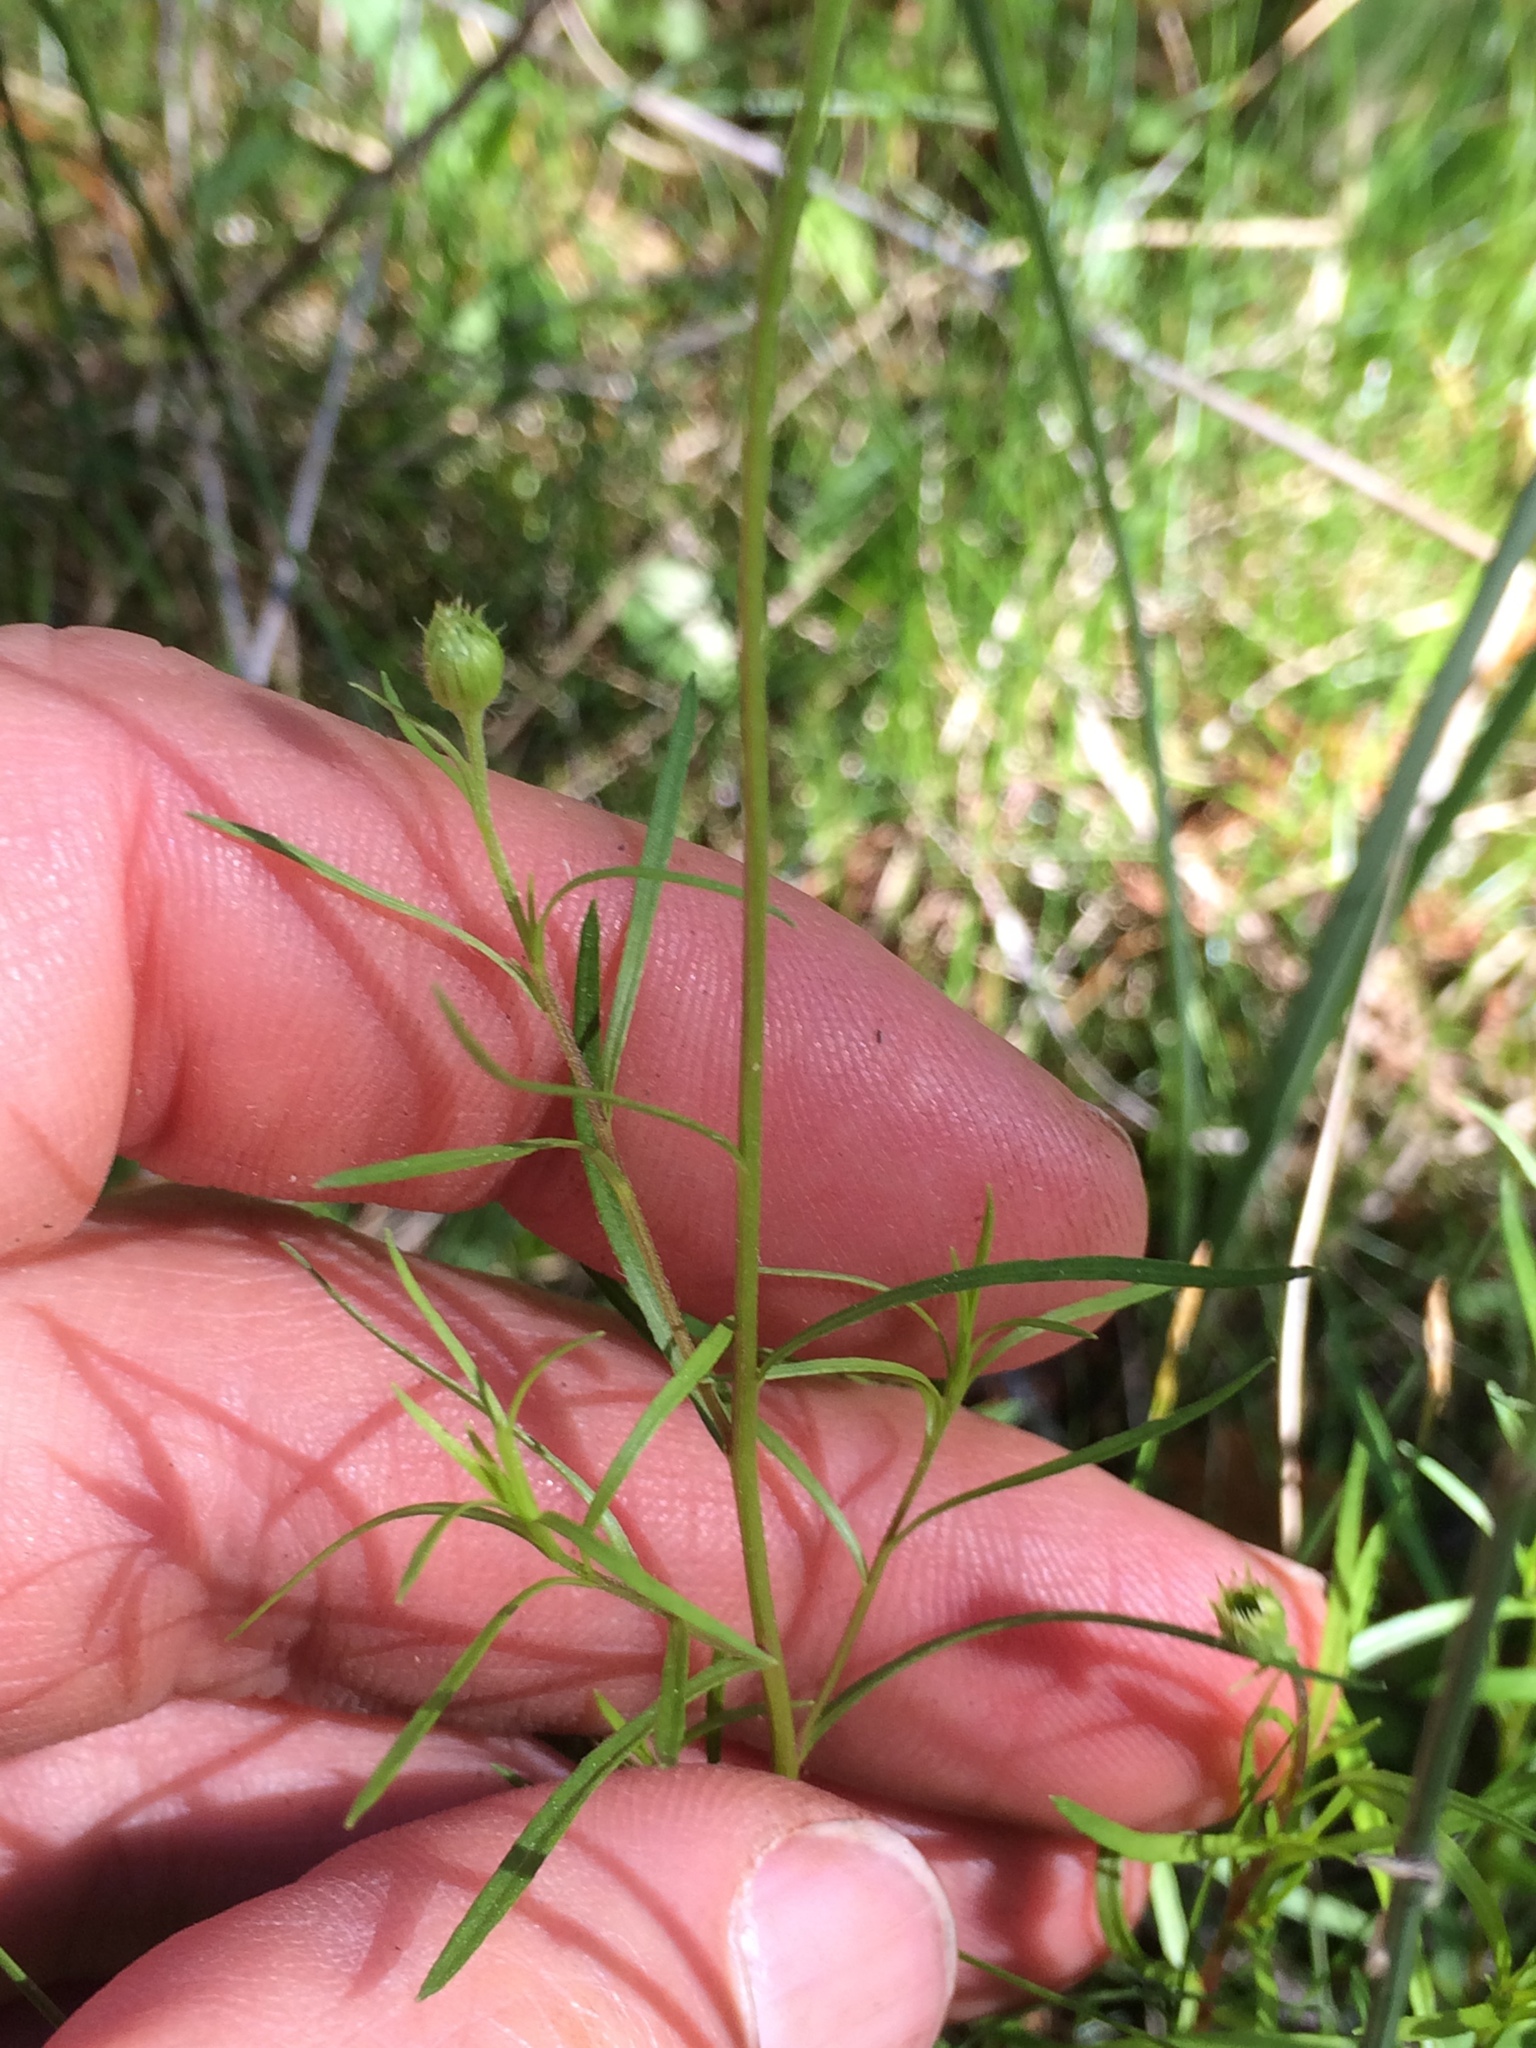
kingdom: Plantae
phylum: Tracheophyta
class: Magnoliopsida
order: Asterales
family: Asteraceae
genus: Erigeron
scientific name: Erigeron hyssopifolius
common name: Daisy fleabane
